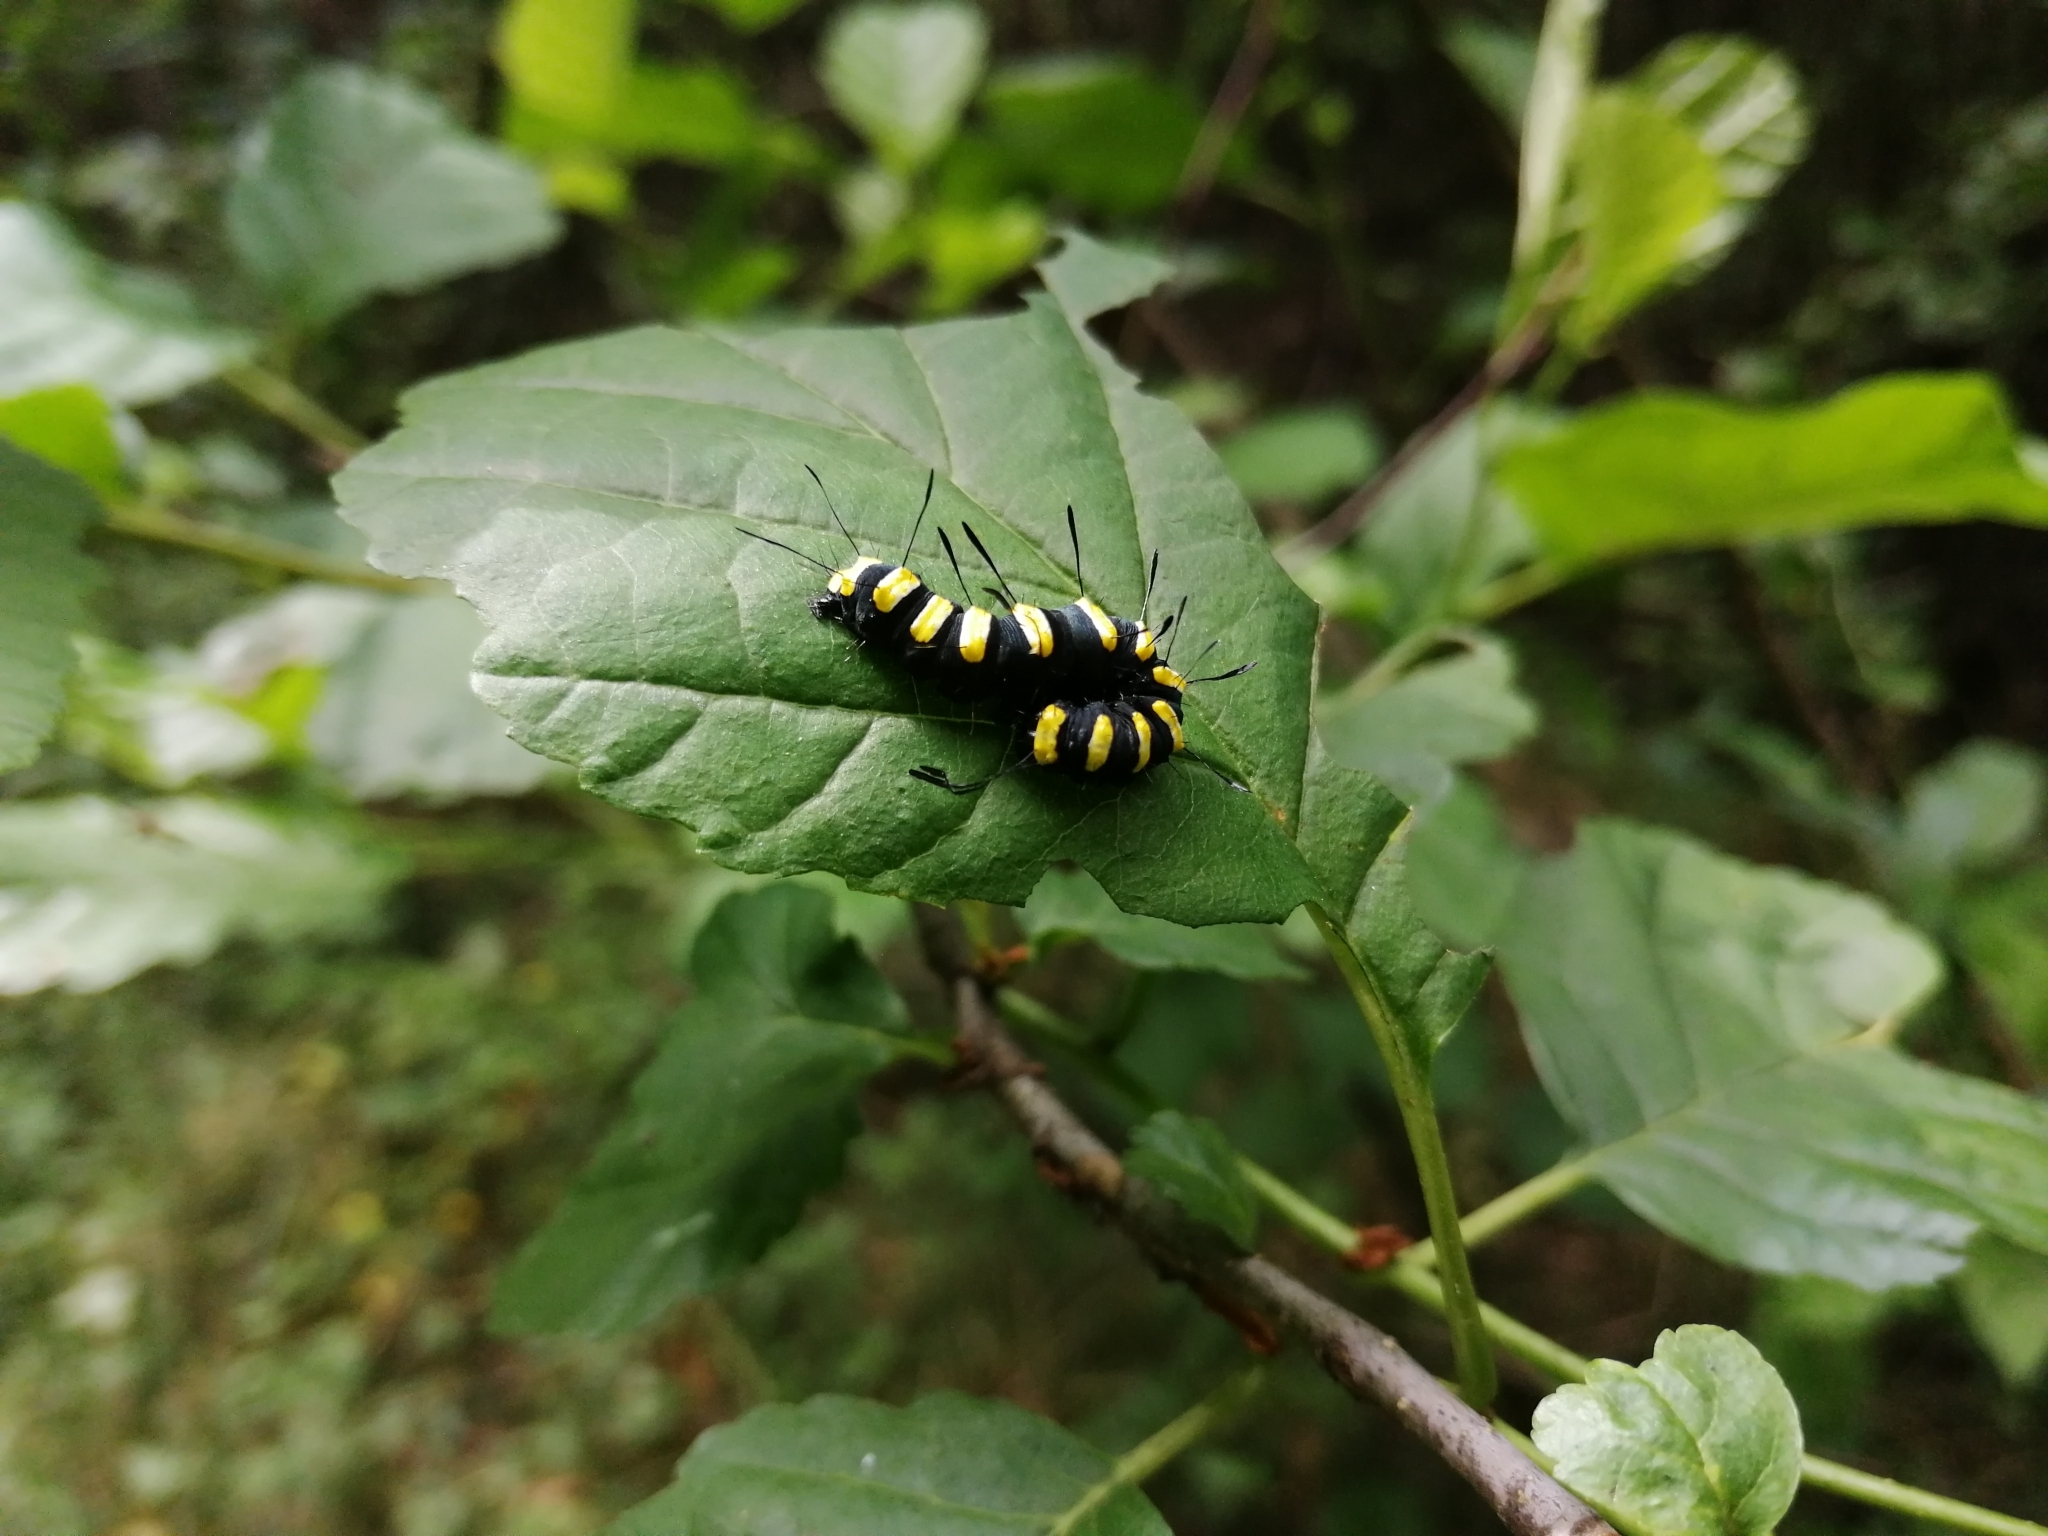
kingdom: Animalia
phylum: Arthropoda
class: Insecta
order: Lepidoptera
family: Noctuidae
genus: Acronicta
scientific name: Acronicta alni
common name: Alder moth
